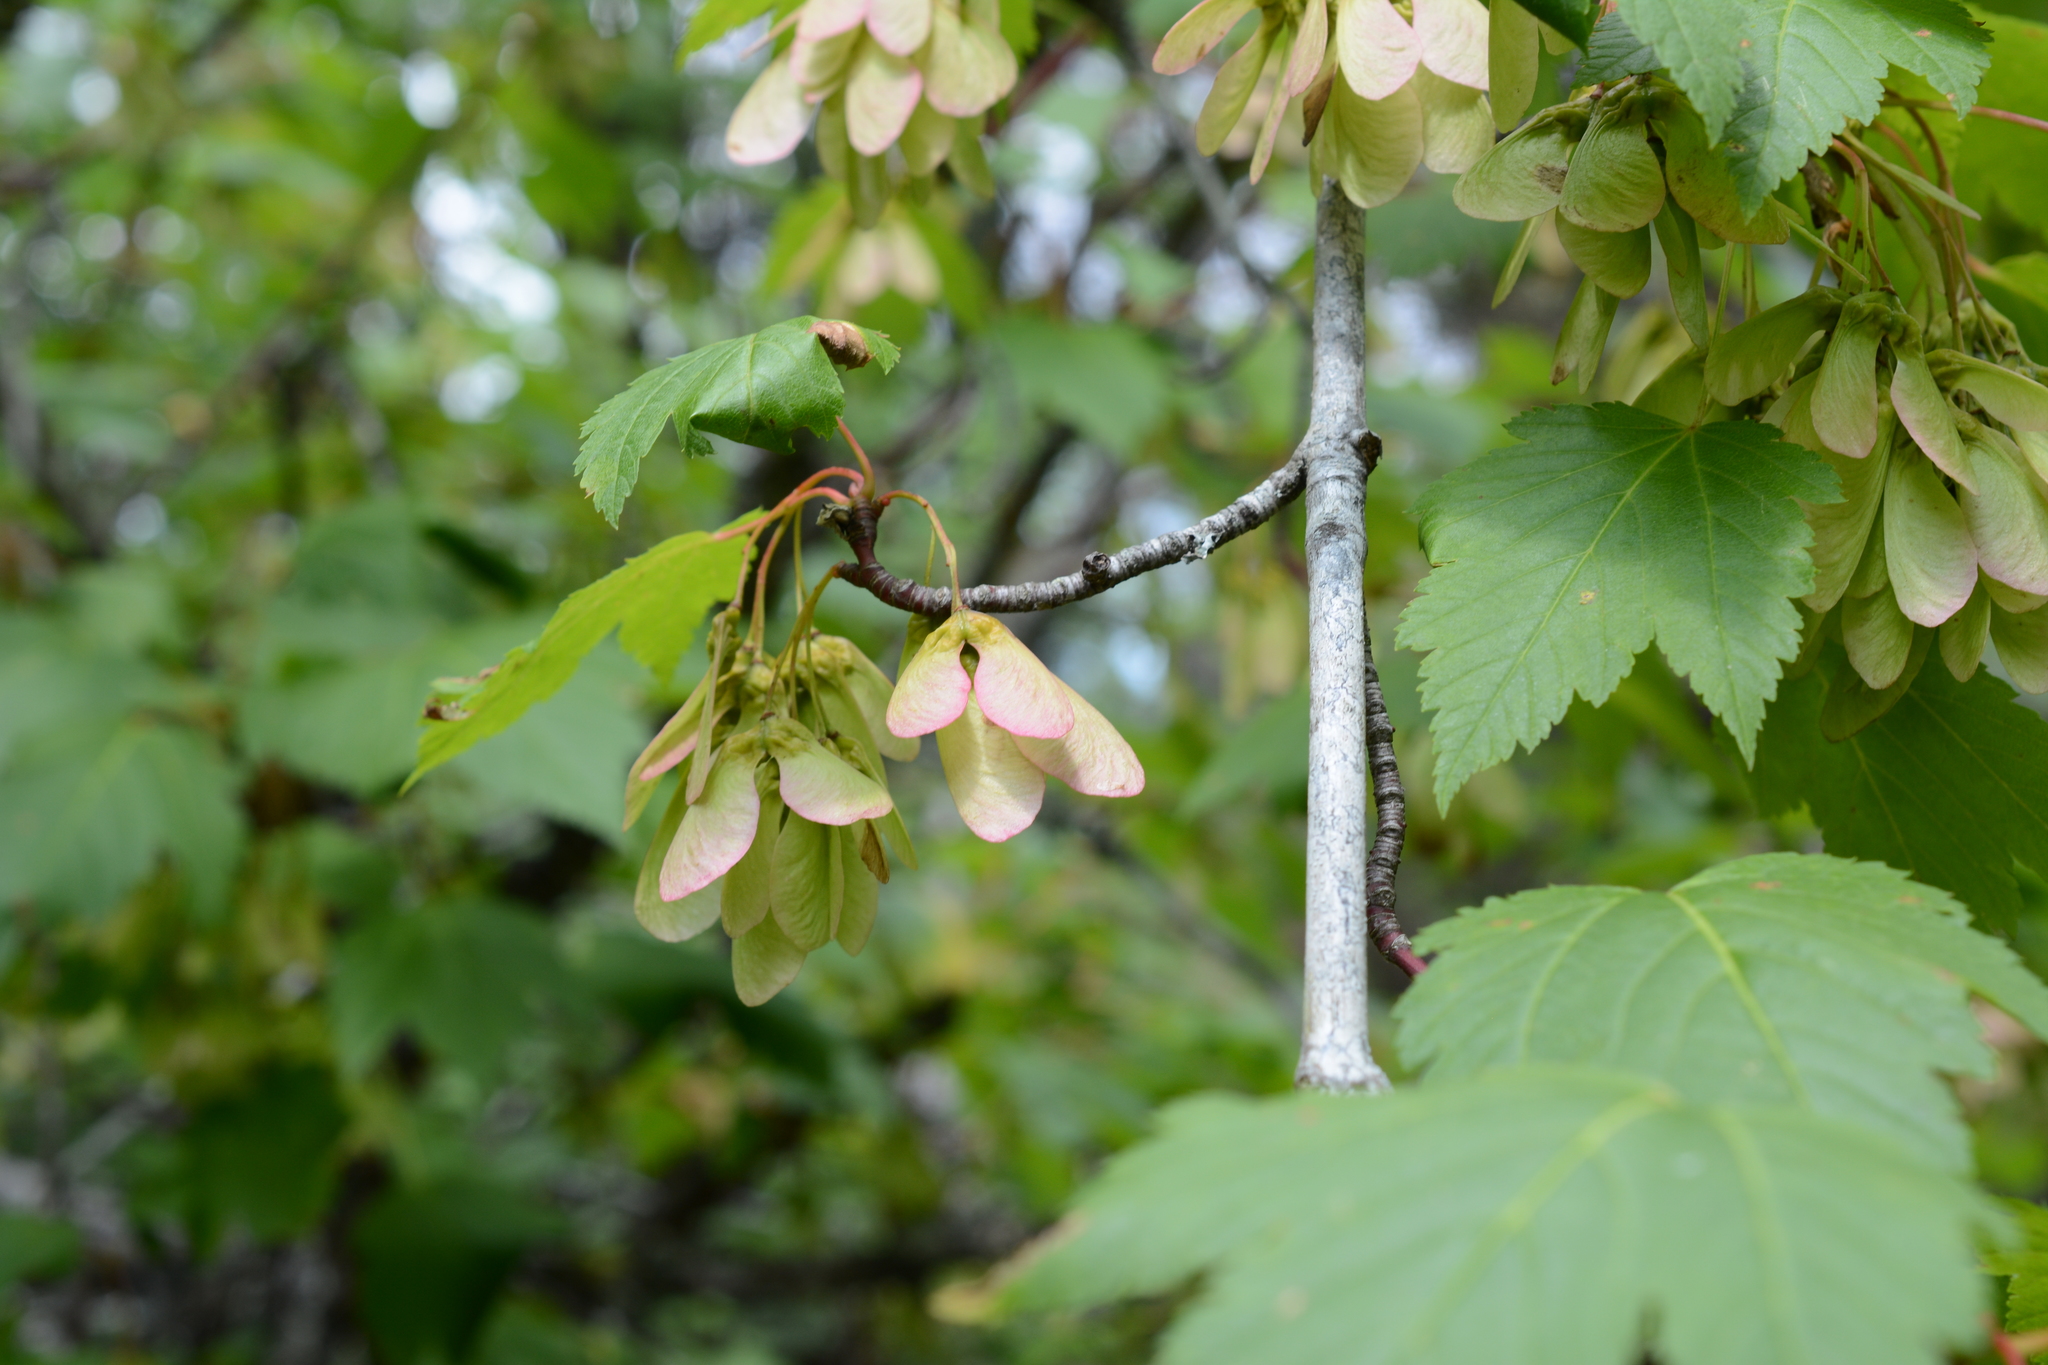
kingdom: Plantae
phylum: Tracheophyta
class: Magnoliopsida
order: Sapindales
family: Sapindaceae
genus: Acer
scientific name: Acer glabrum
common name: Rocky mountain maple
